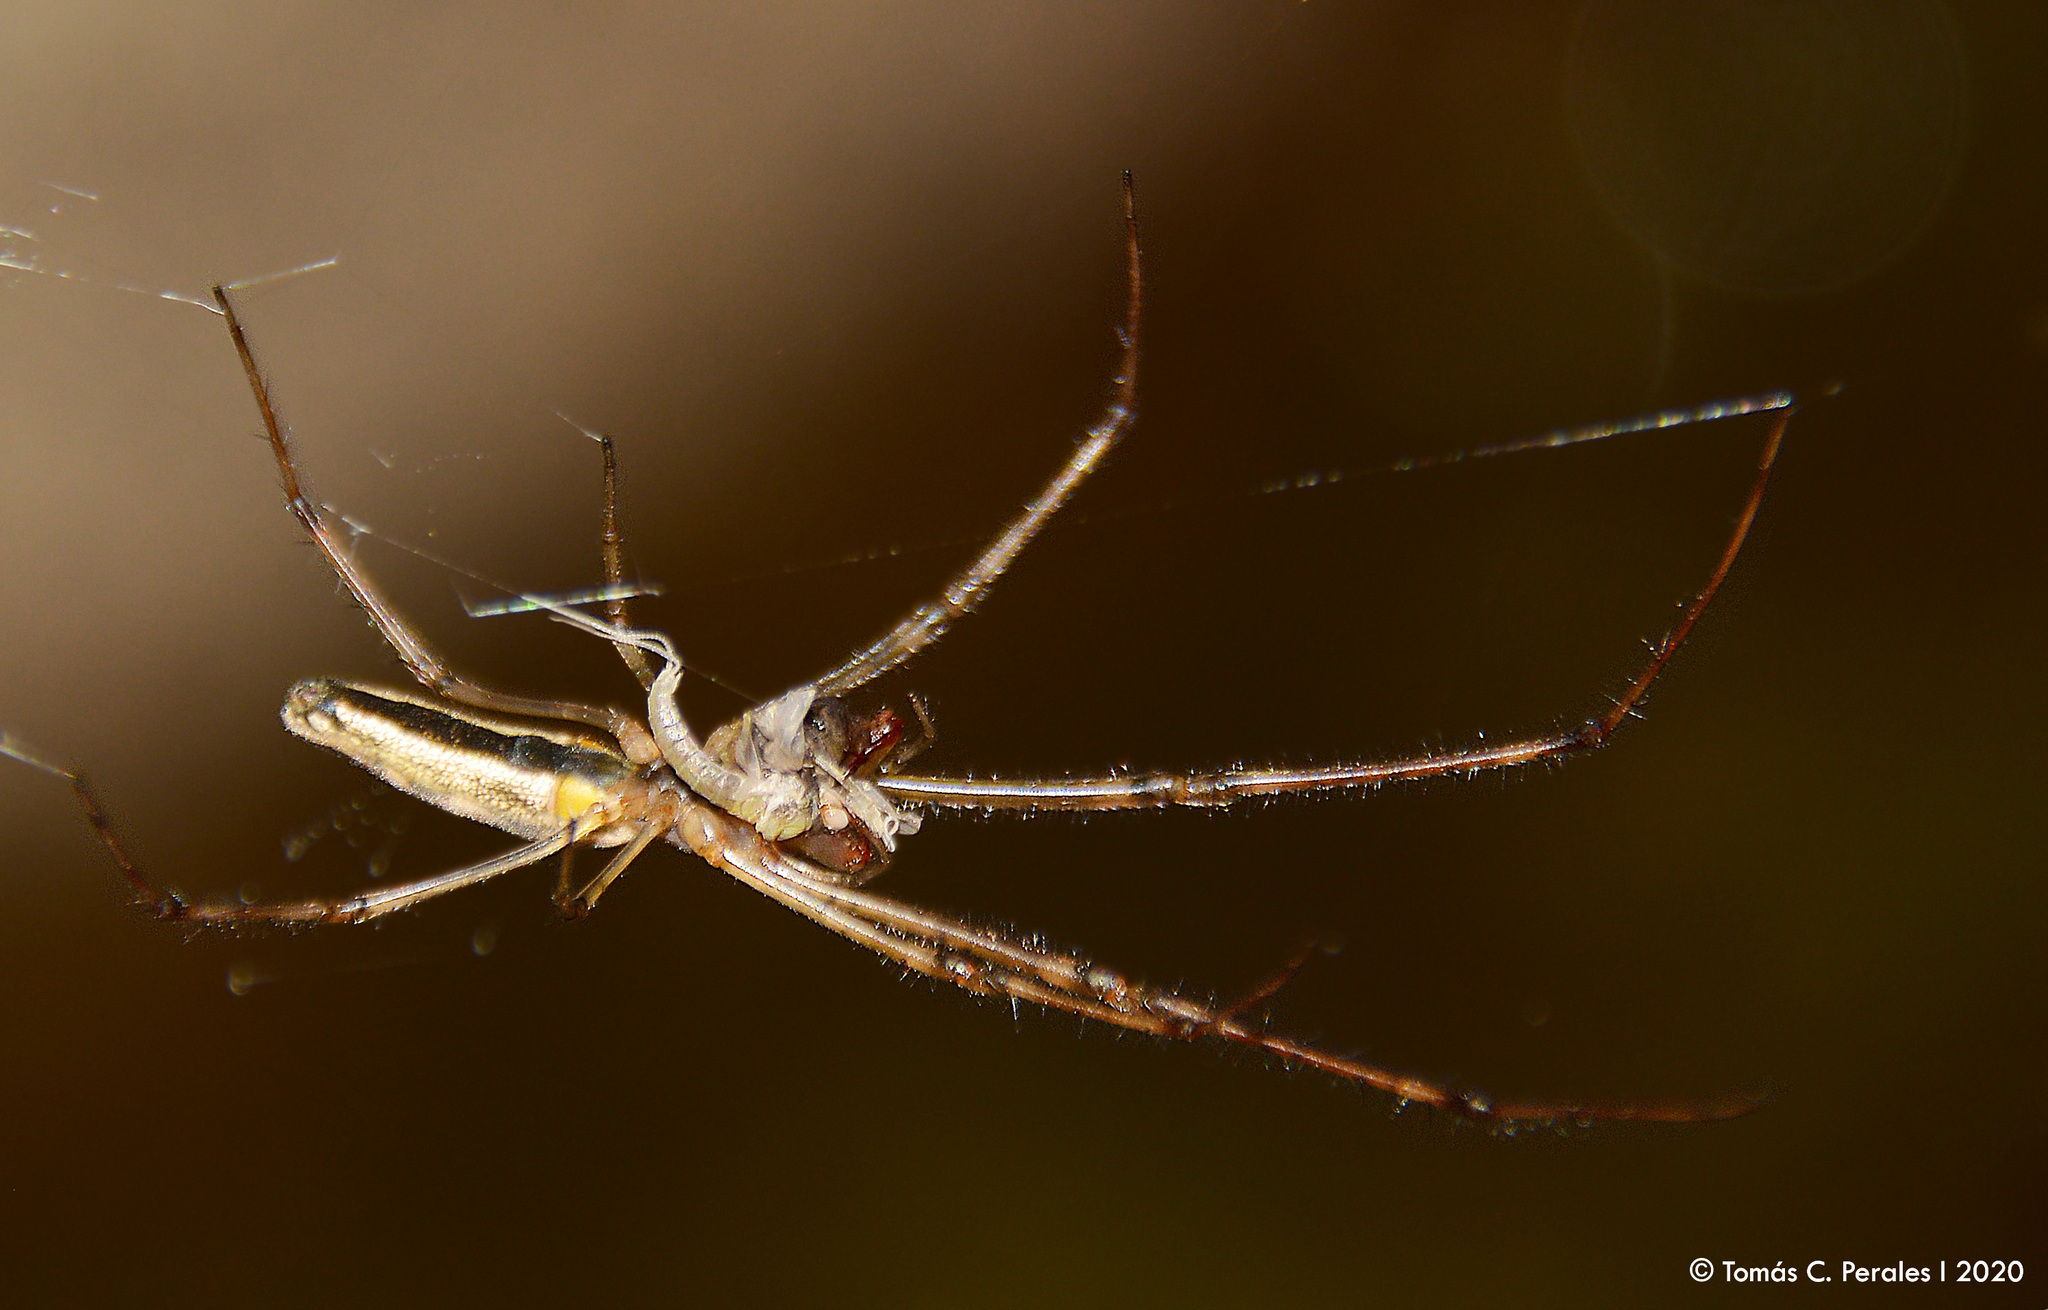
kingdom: Animalia
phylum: Arthropoda
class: Arachnida
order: Araneae
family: Tetragnathidae
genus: Tetragnatha
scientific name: Tetragnatha
